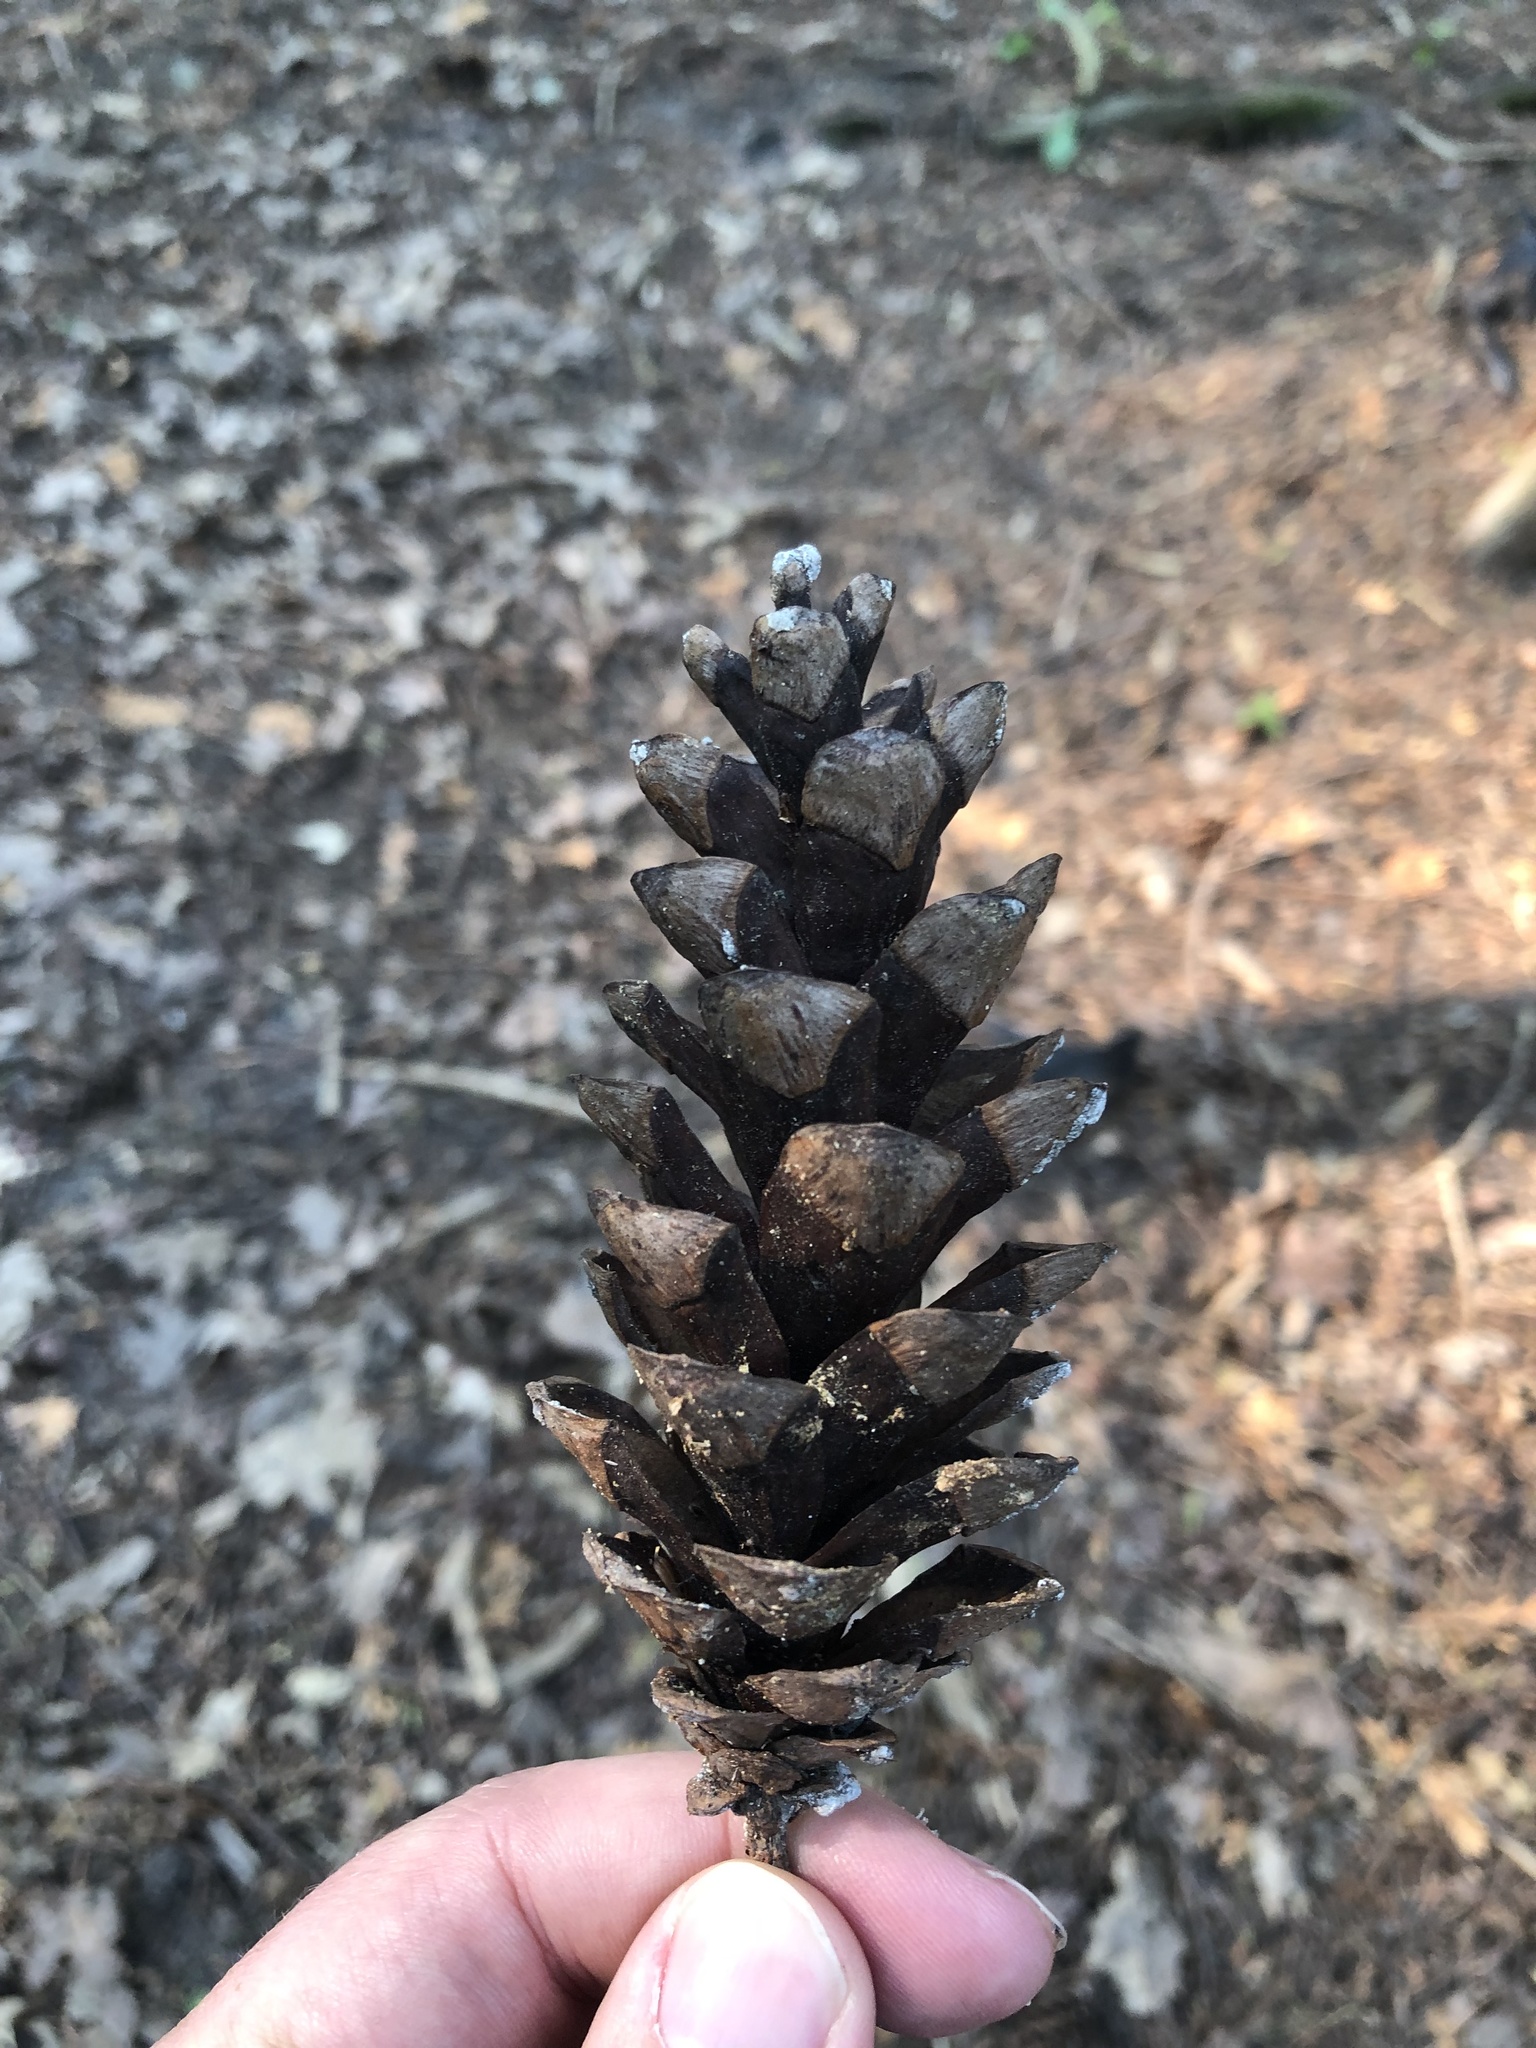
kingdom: Plantae
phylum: Tracheophyta
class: Pinopsida
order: Pinales
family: Pinaceae
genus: Pinus
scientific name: Pinus strobus
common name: Weymouth pine
